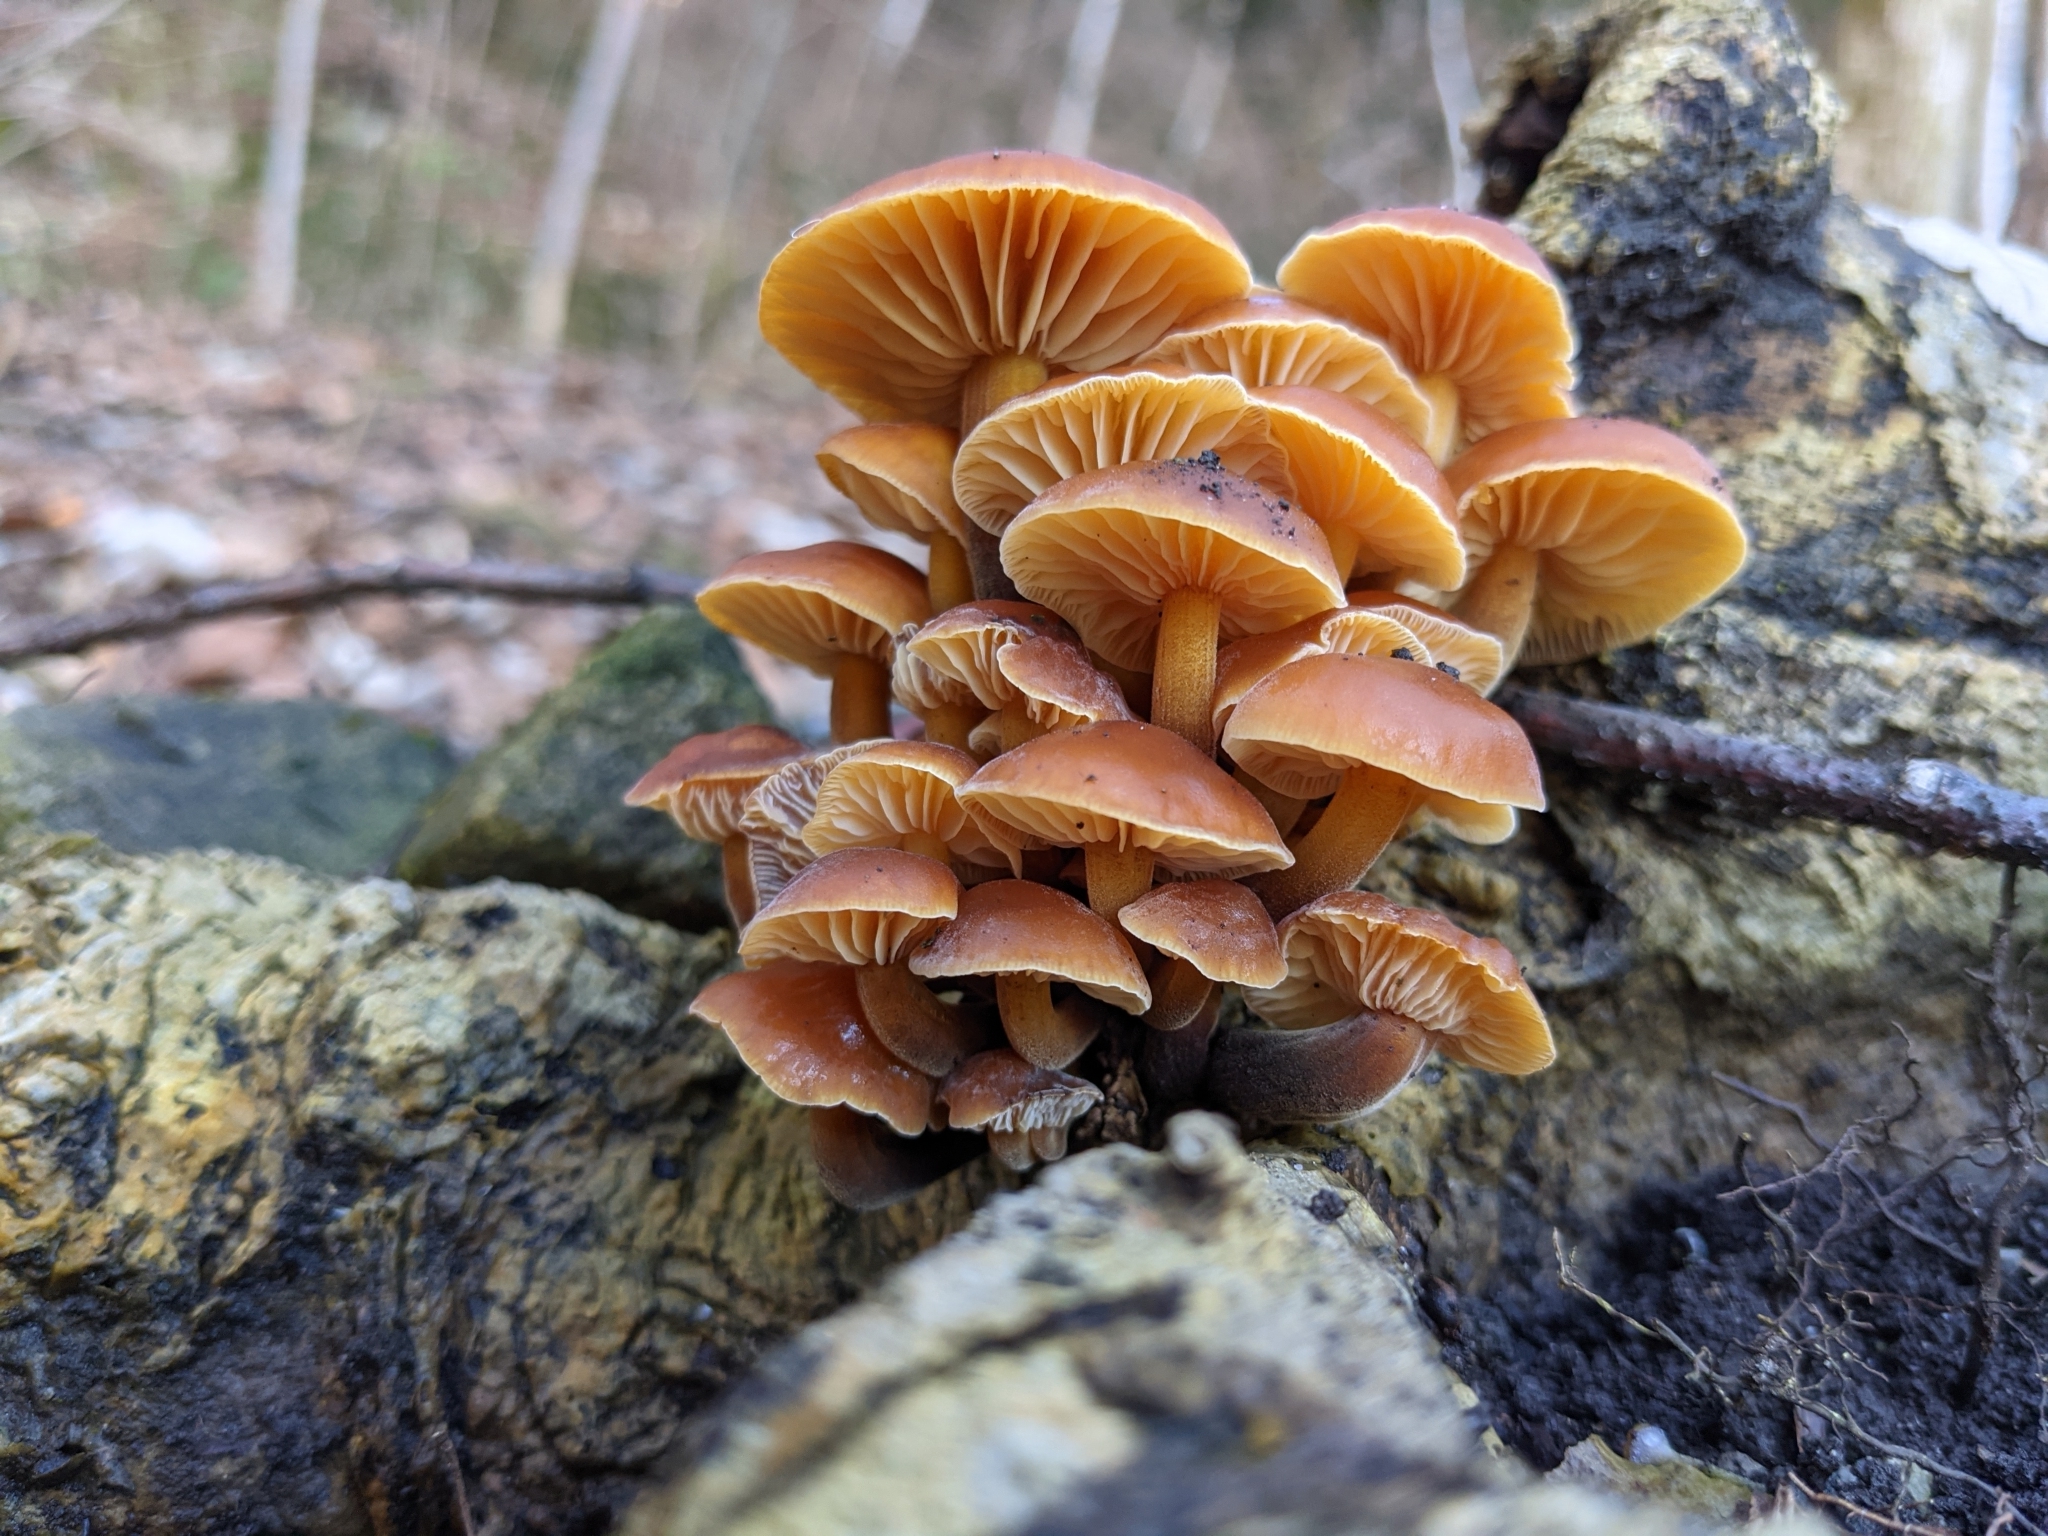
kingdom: Fungi
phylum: Basidiomycota
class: Agaricomycetes
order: Agaricales
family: Physalacriaceae
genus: Flammulina
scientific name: Flammulina
